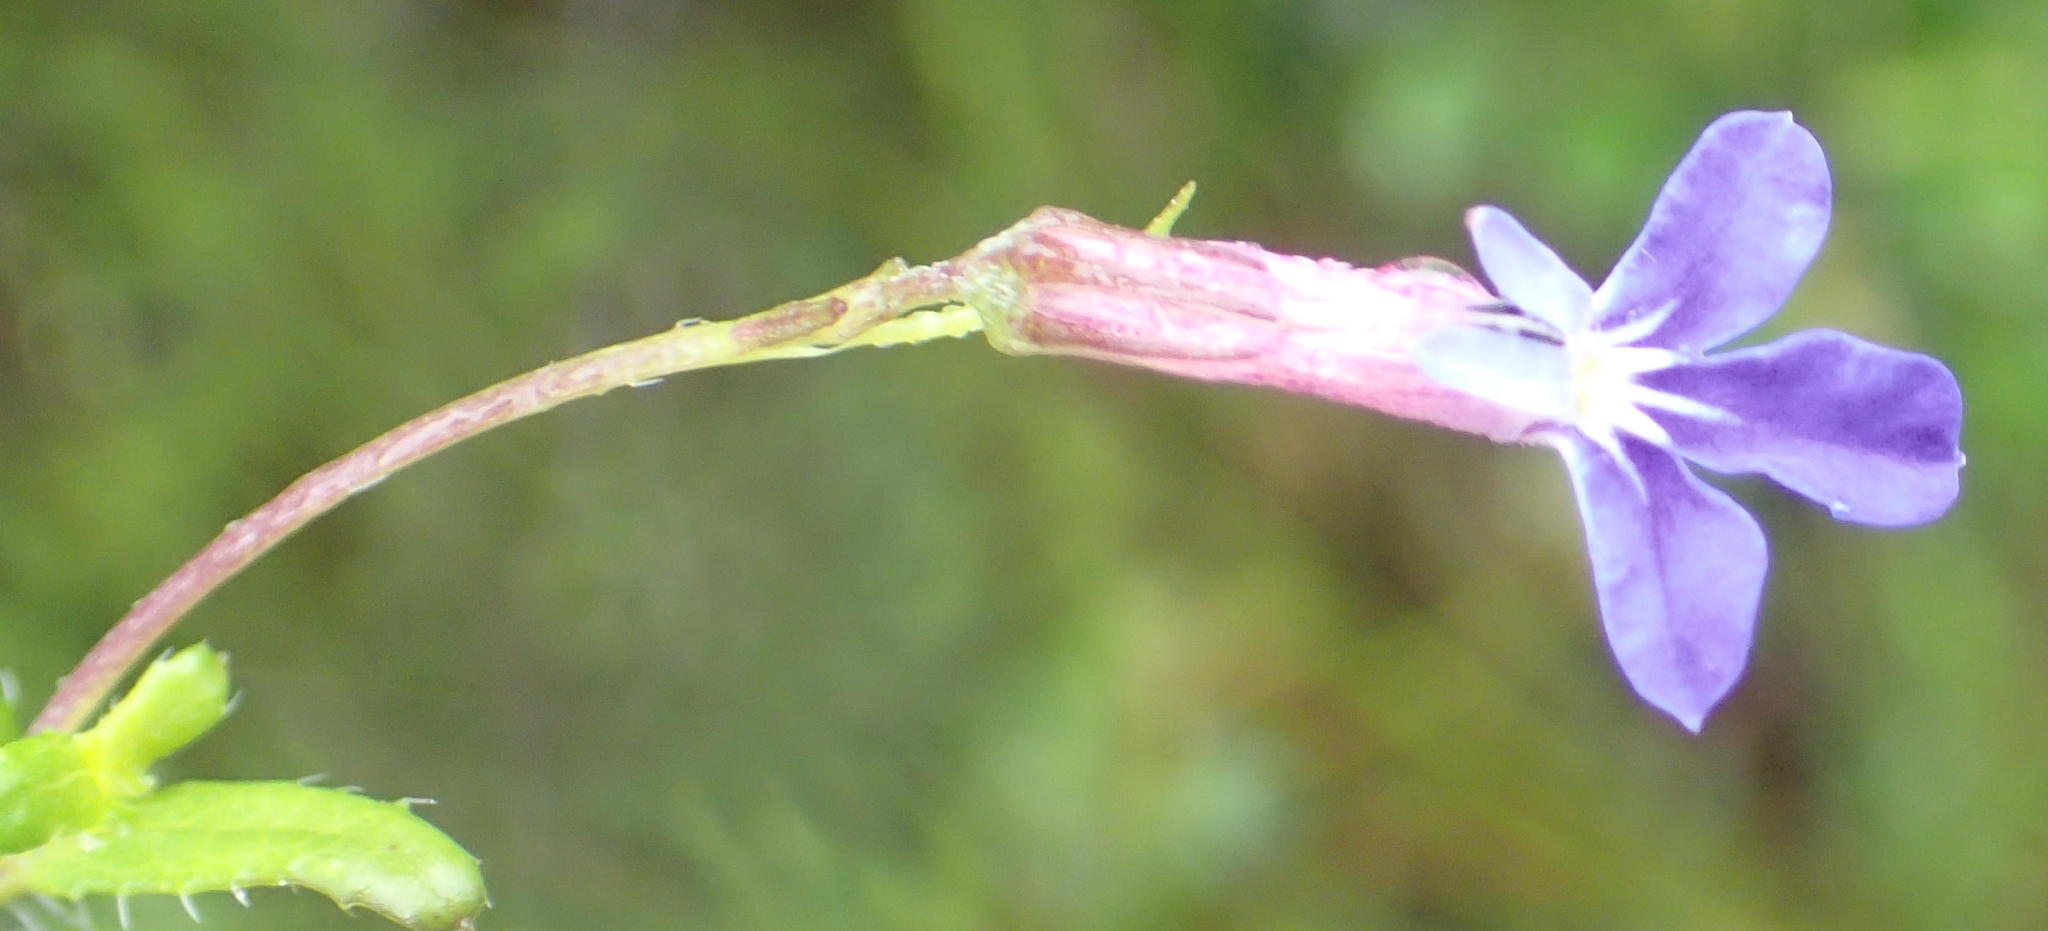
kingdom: Plantae
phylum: Tracheophyta
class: Magnoliopsida
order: Asterales
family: Campanulaceae
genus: Lobelia
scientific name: Lobelia neglecta
